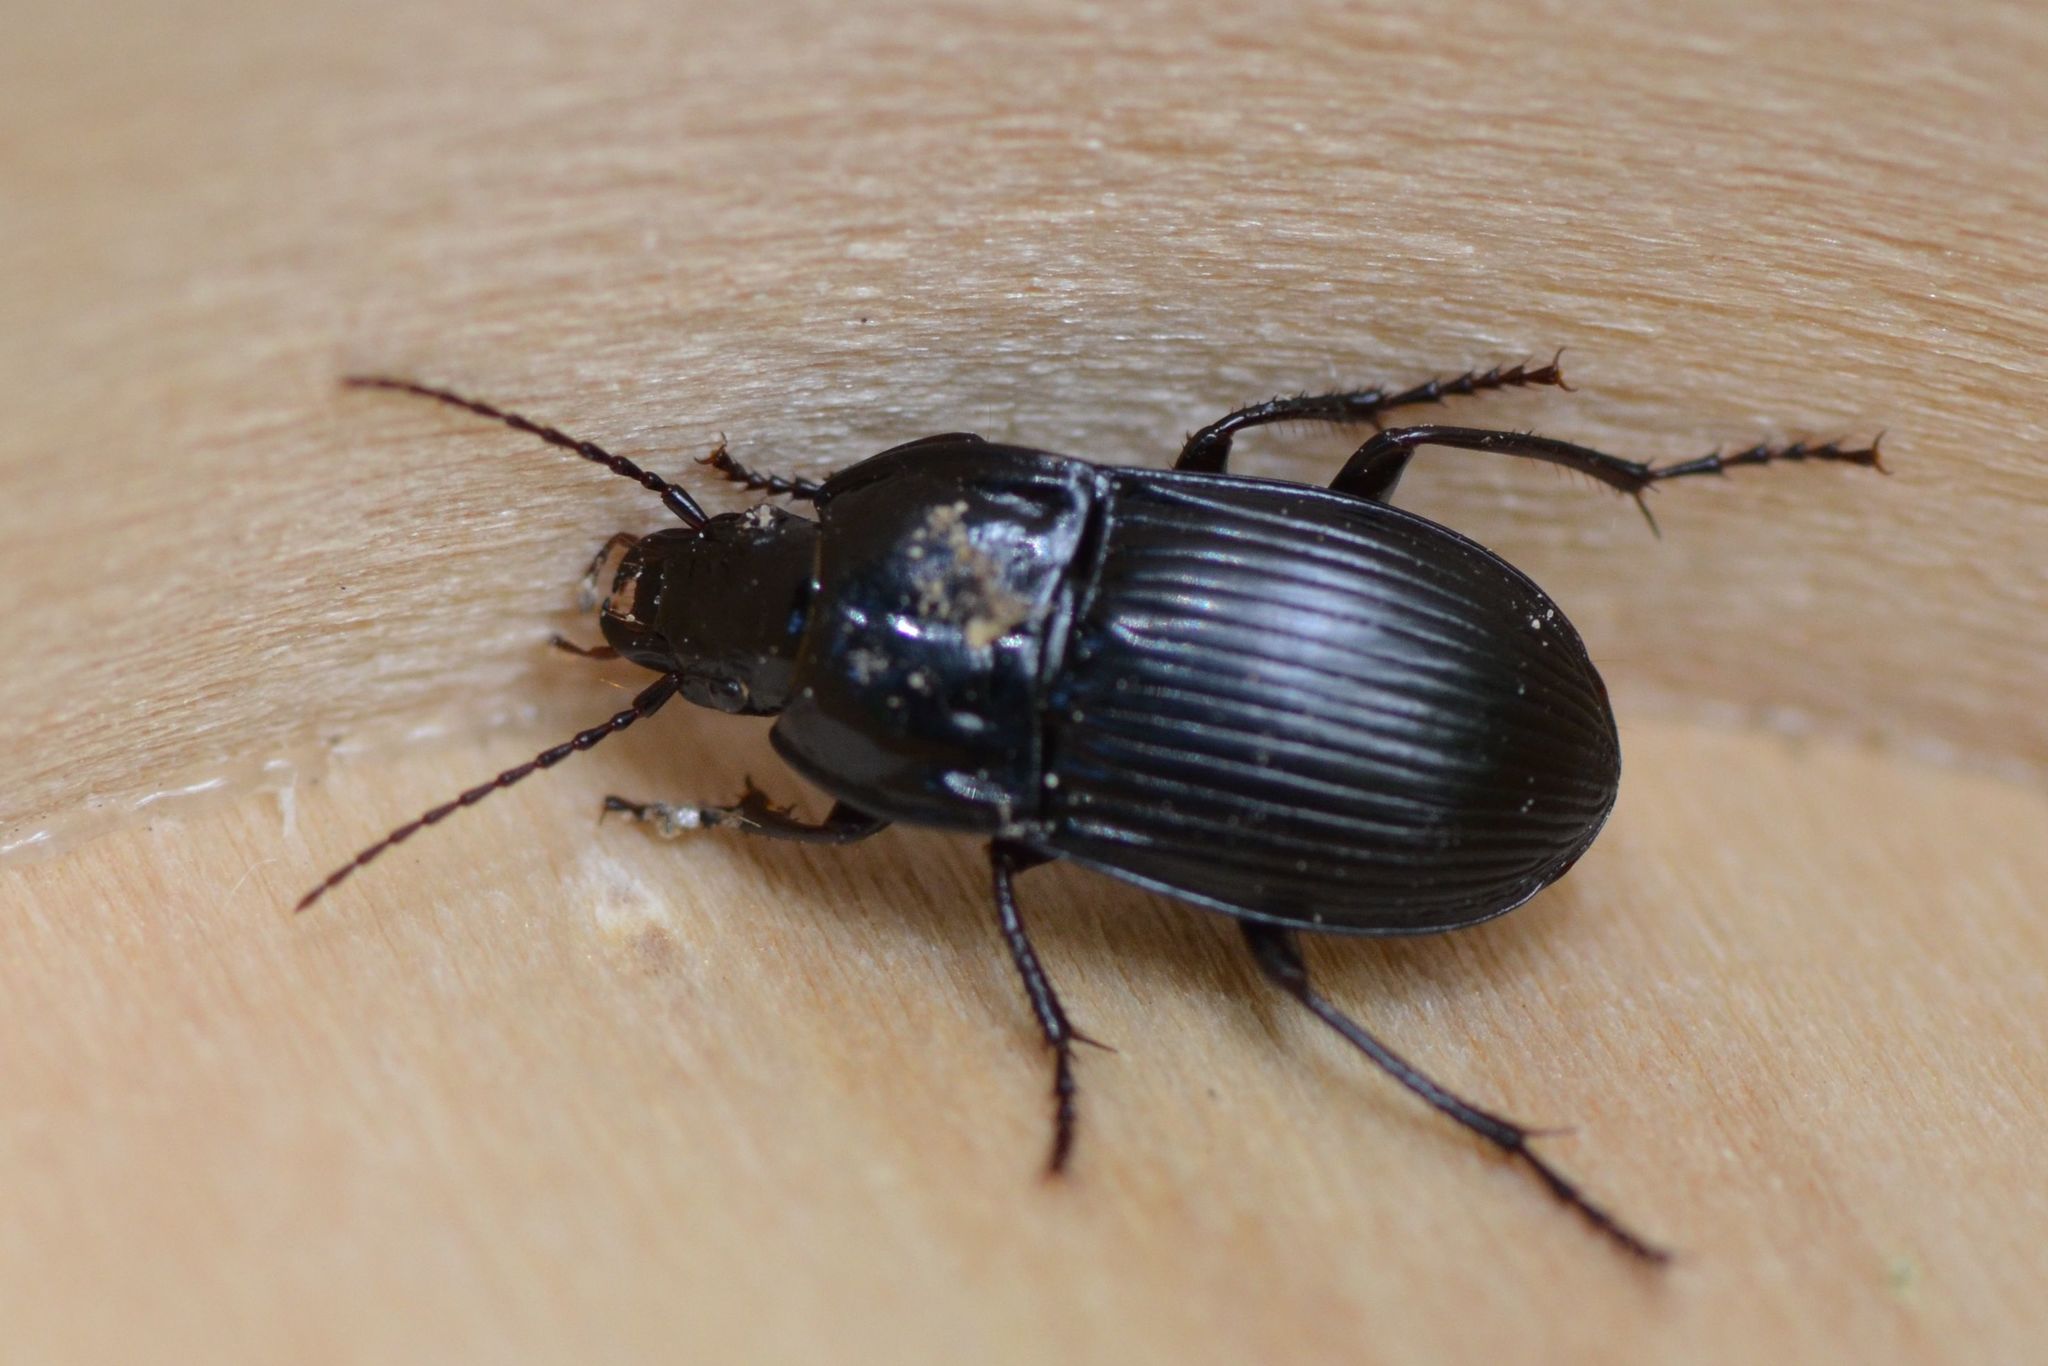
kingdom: Animalia
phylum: Arthropoda
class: Insecta
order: Coleoptera
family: Carabidae
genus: Abax
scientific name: Abax ovalis
